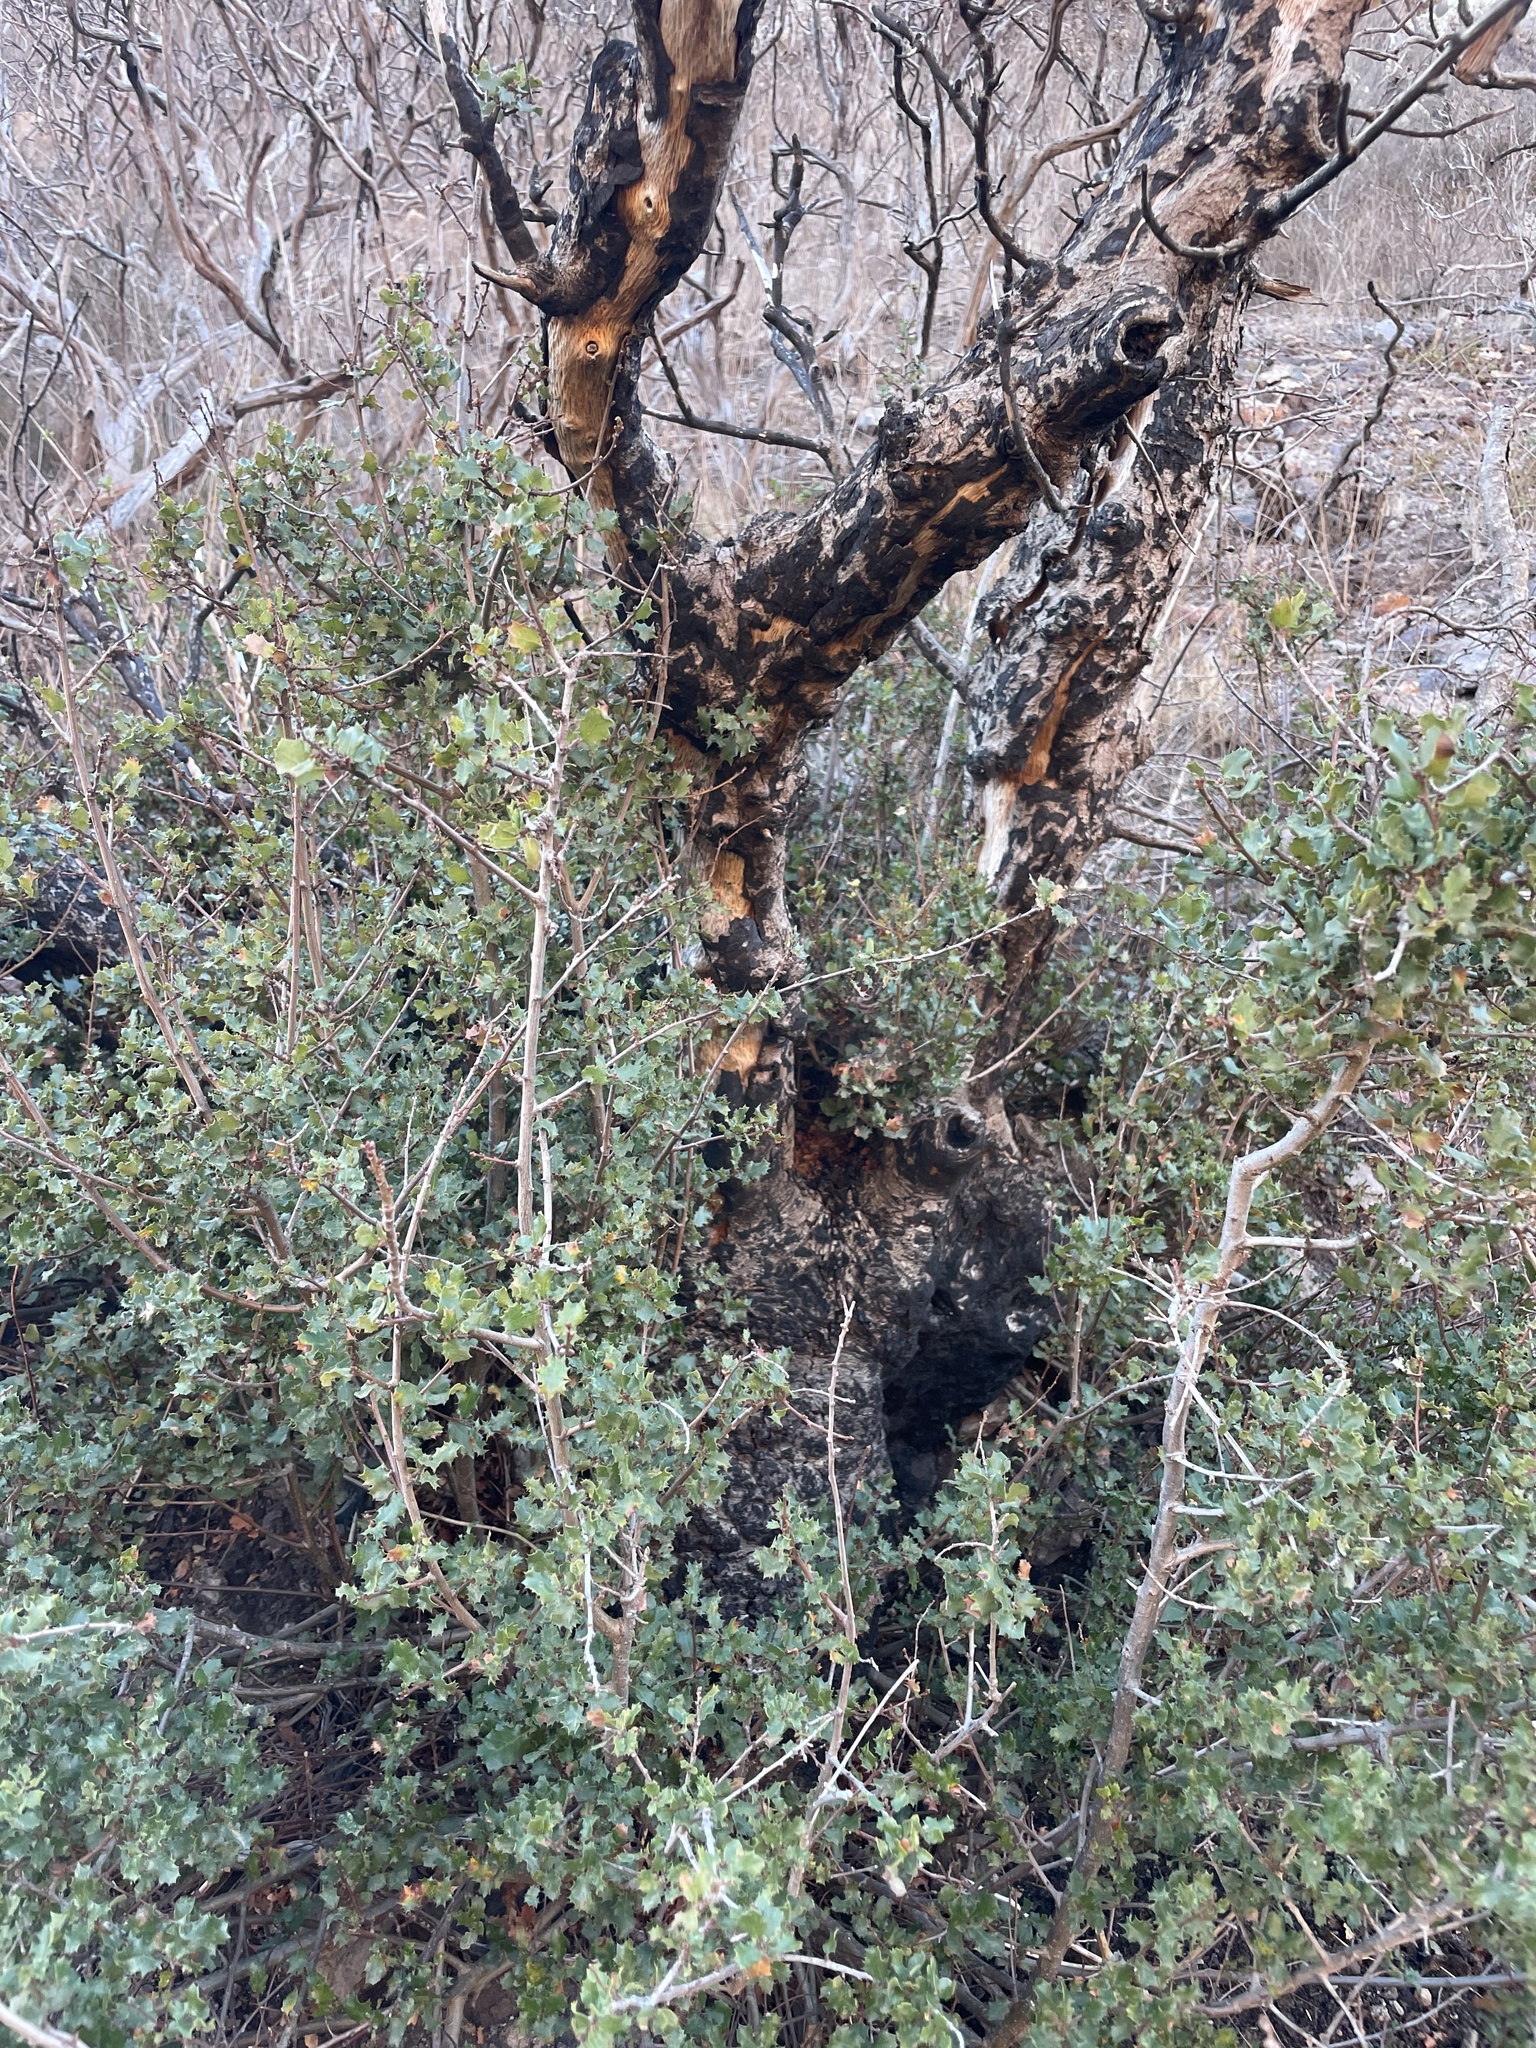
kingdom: Plantae
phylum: Tracheophyta
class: Magnoliopsida
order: Fagales
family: Fagaceae
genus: Quercus
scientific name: Quercus dumosa
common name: Coastal sage scrub oak
